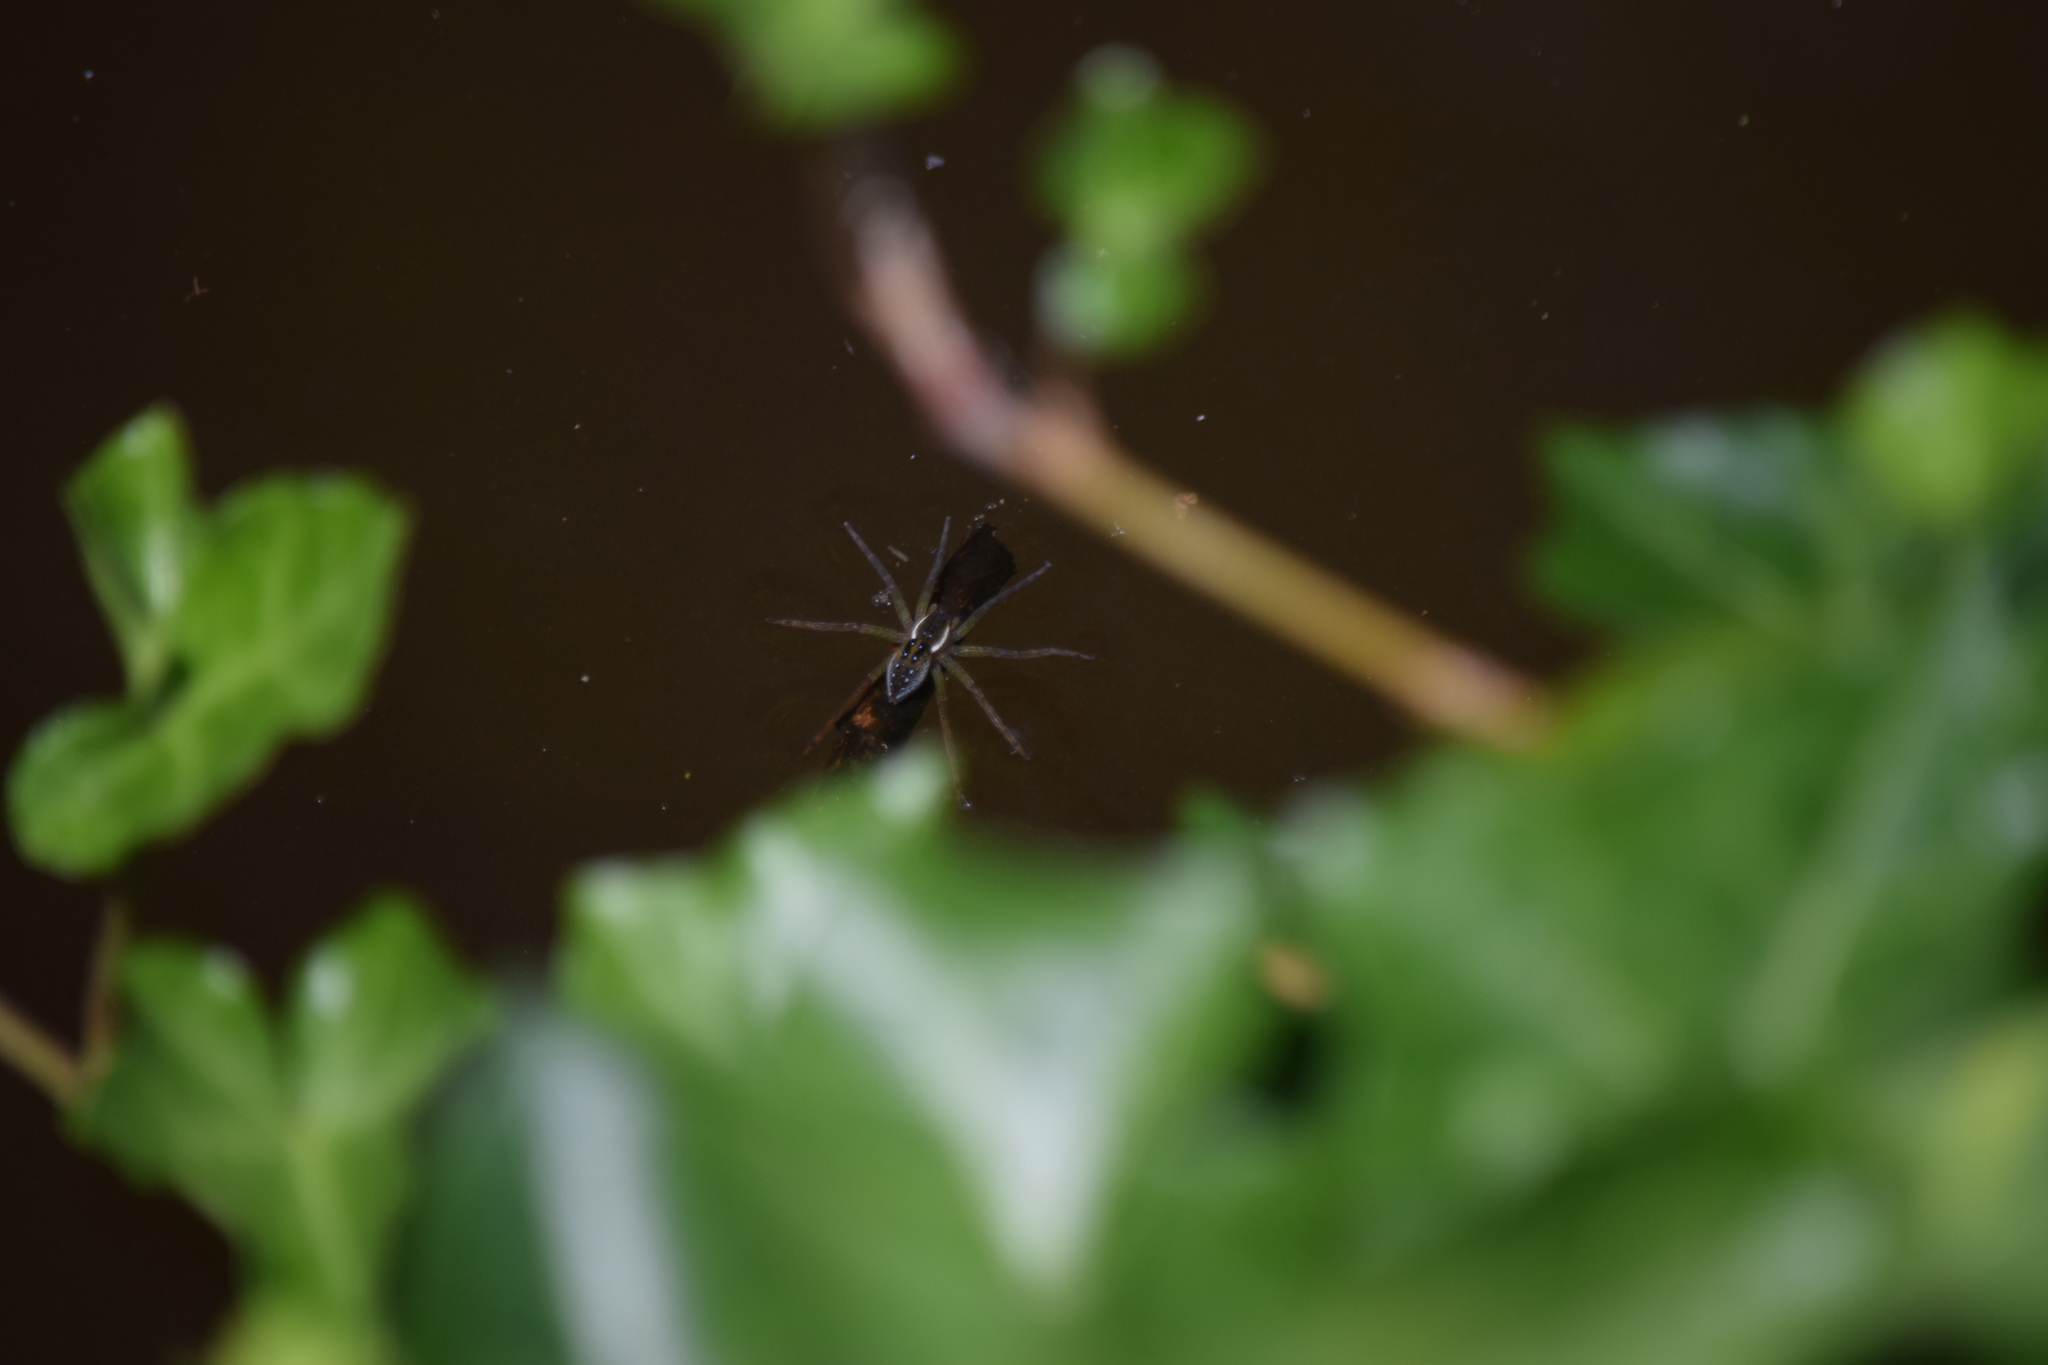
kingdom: Animalia
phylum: Arthropoda
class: Arachnida
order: Araneae
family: Pisauridae
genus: Dolomedes
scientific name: Dolomedes triton
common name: Six-spotted fishing spider
